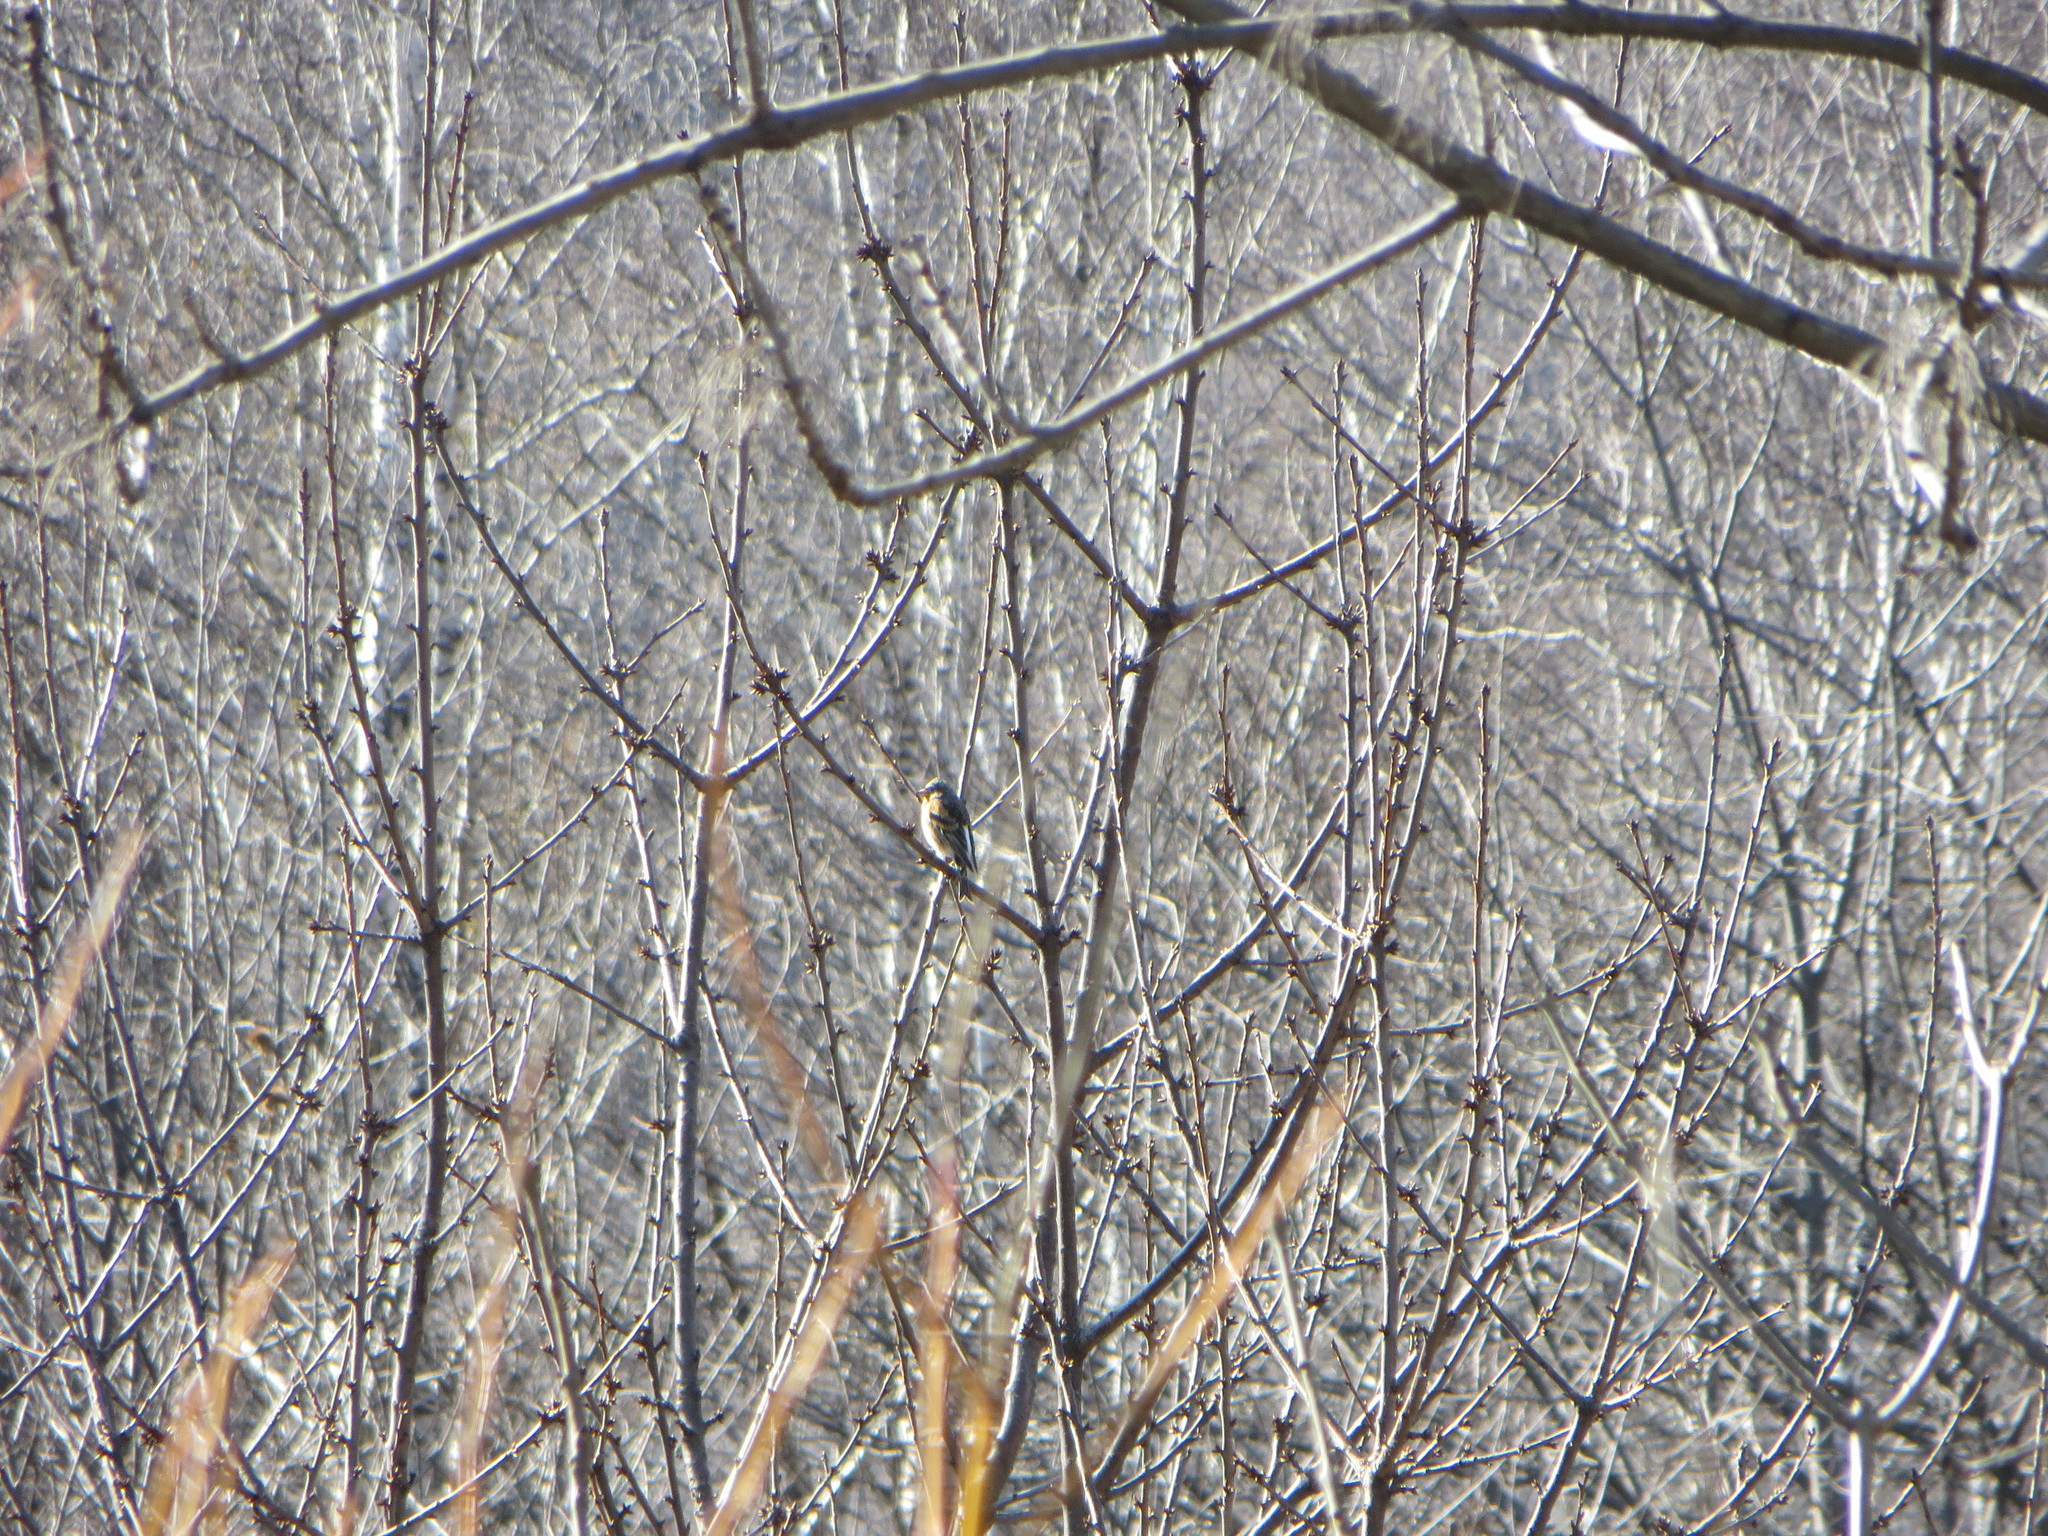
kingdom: Animalia
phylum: Chordata
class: Aves
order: Passeriformes
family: Fringillidae
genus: Fringilla
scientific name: Fringilla montifringilla
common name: Brambling
